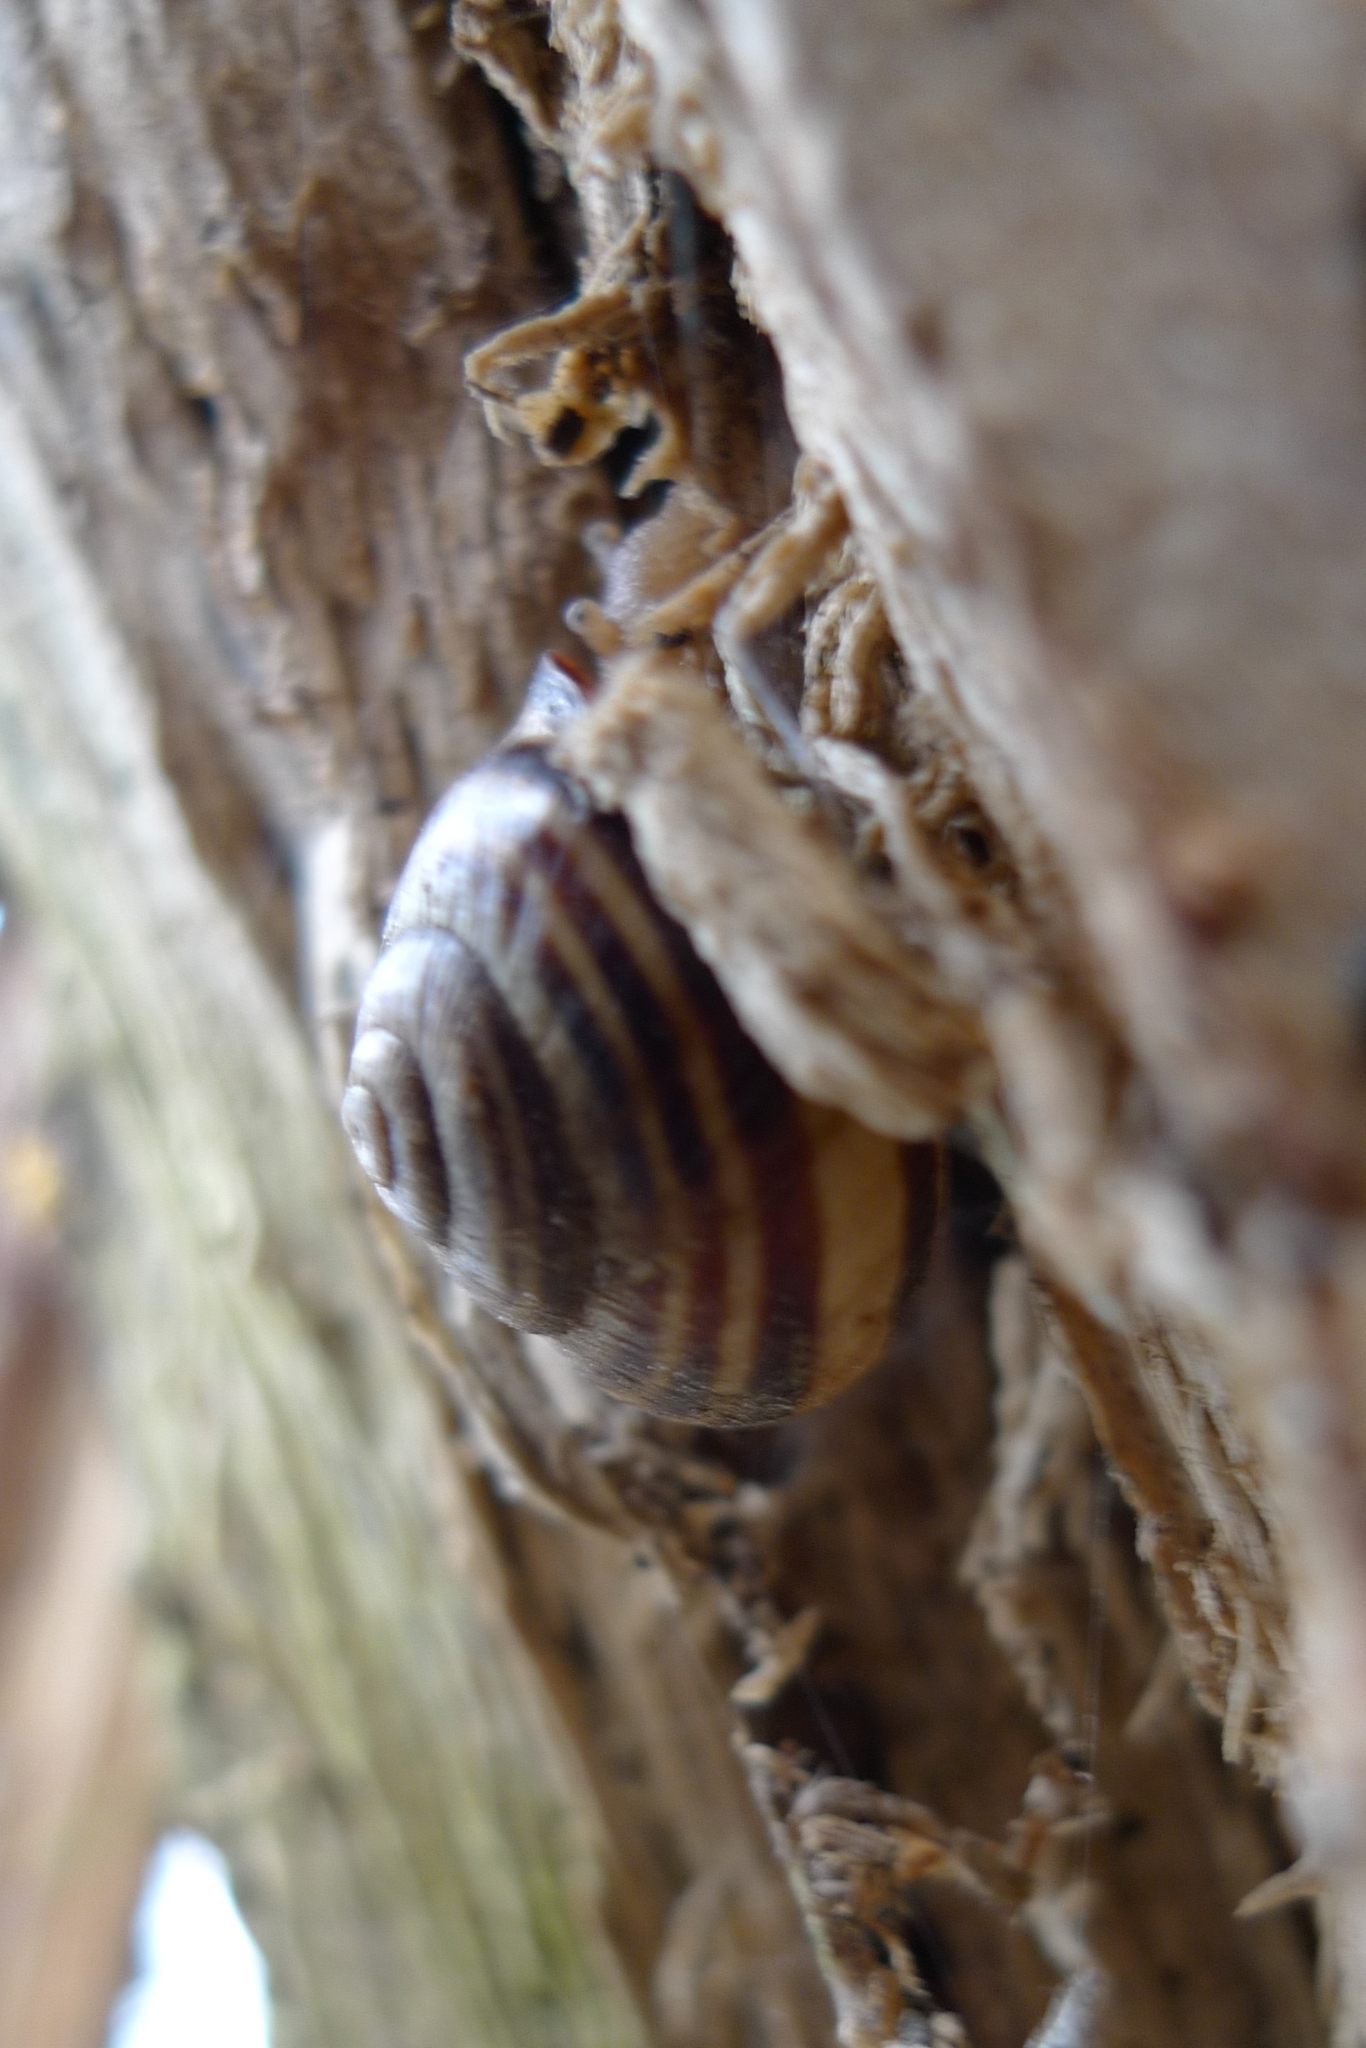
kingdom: Animalia
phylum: Mollusca
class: Gastropoda
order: Stylommatophora
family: Helicidae
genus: Cepaea
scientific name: Cepaea nemoralis
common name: Grovesnail
